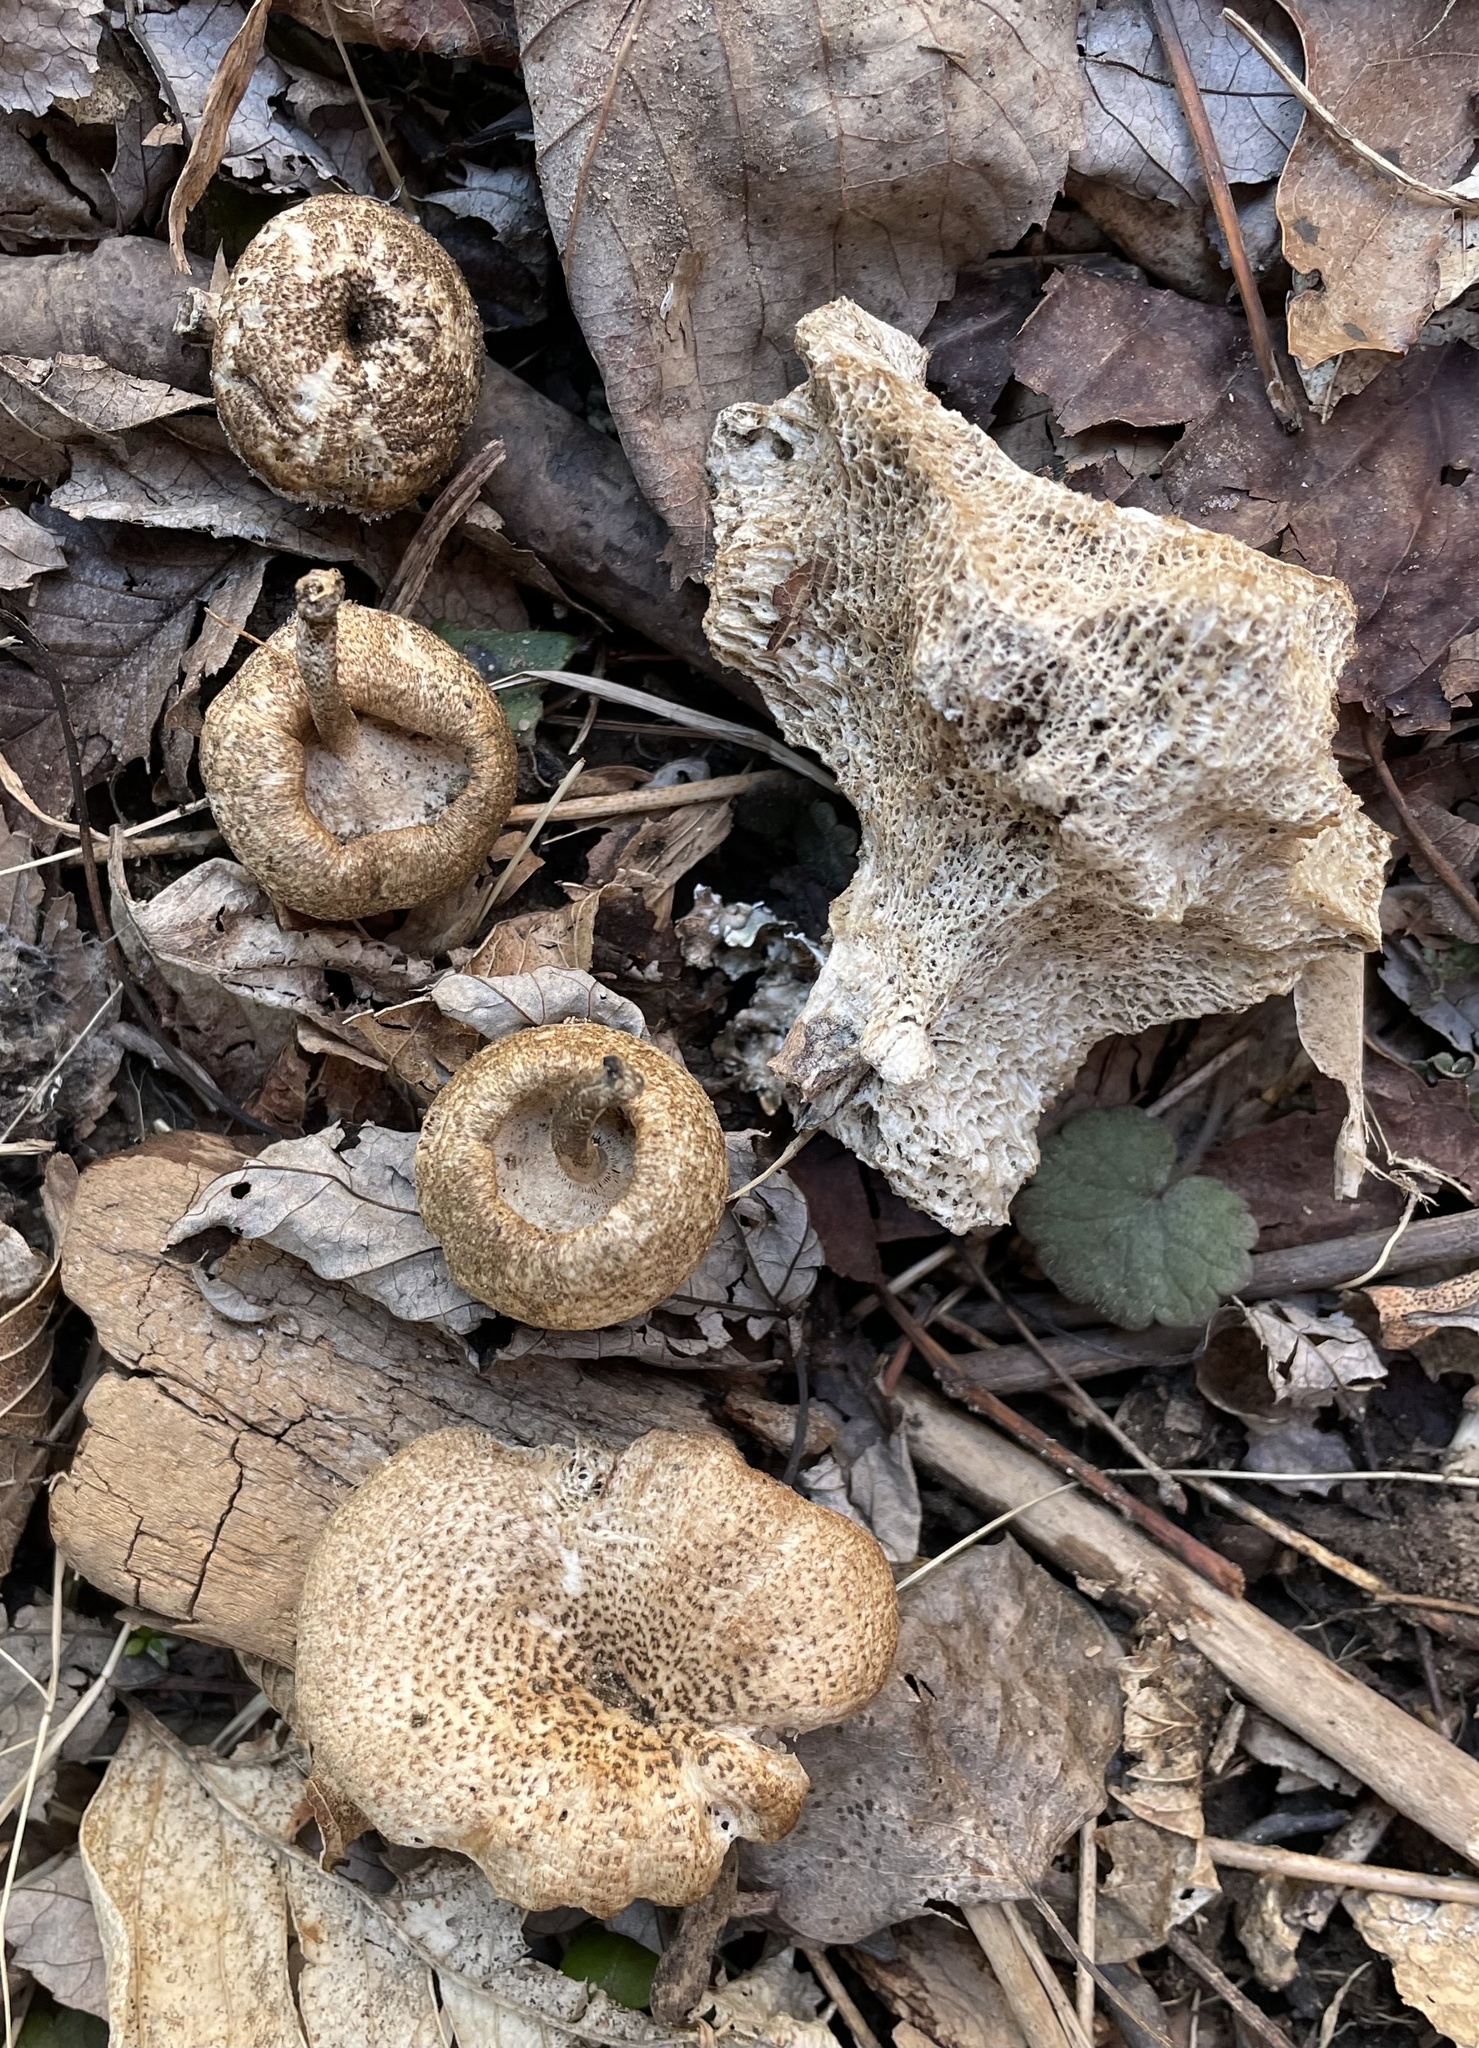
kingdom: Fungi
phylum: Basidiomycota
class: Agaricomycetes
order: Polyporales
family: Polyporaceae
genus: Lentinus
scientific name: Lentinus tigrinus
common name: Tiger sawgill
